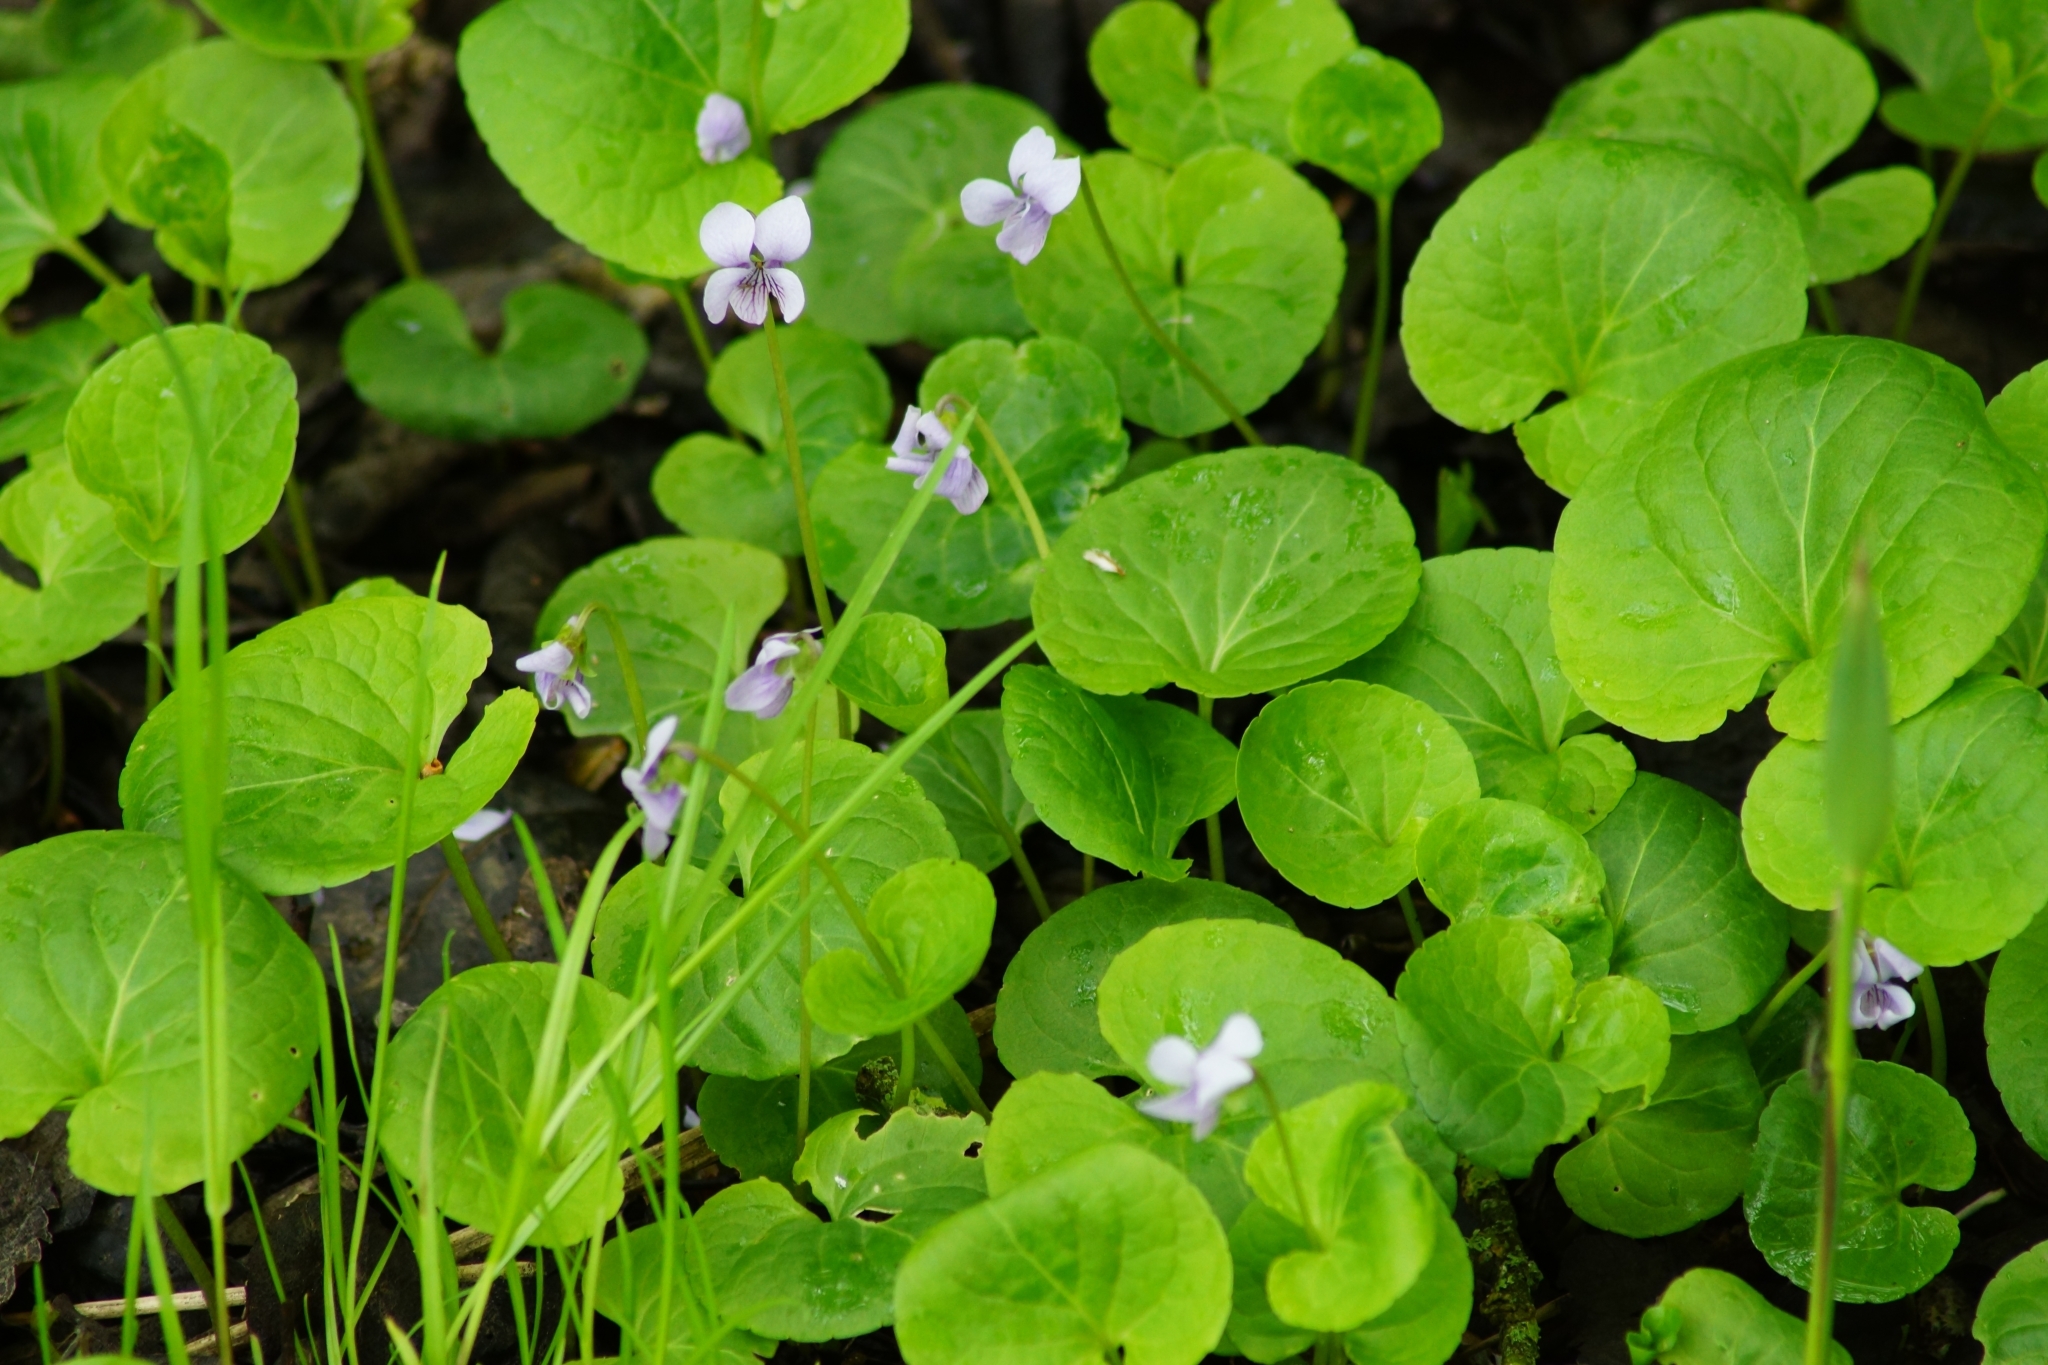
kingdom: Plantae
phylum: Tracheophyta
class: Magnoliopsida
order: Malpighiales
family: Violaceae
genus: Viola
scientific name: Viola palustris
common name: Marsh violet
